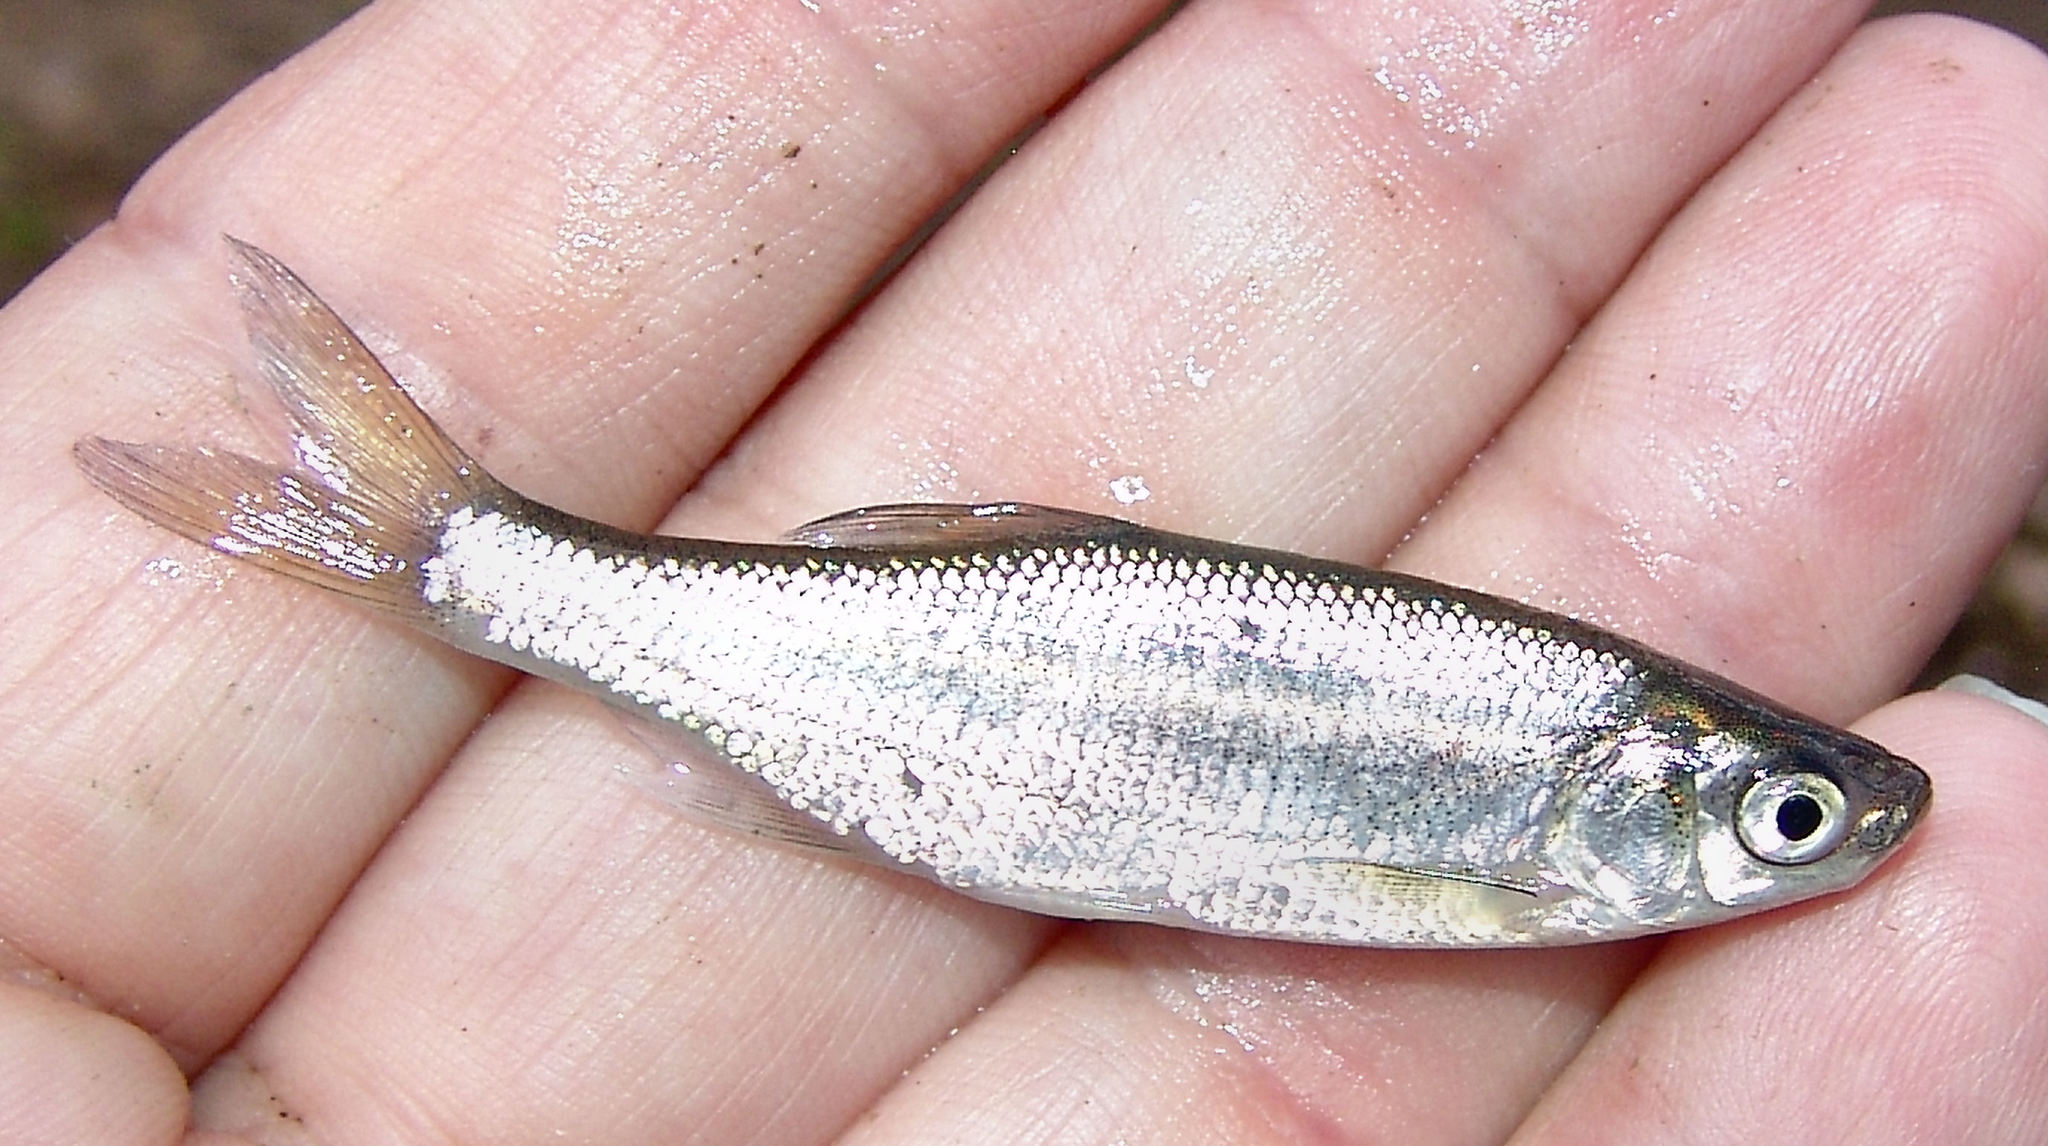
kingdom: Animalia
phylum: Chordata
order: Cypriniformes
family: Cyprinidae
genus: Notemigonus
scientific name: Notemigonus crysoleucas
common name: Golden shiner
